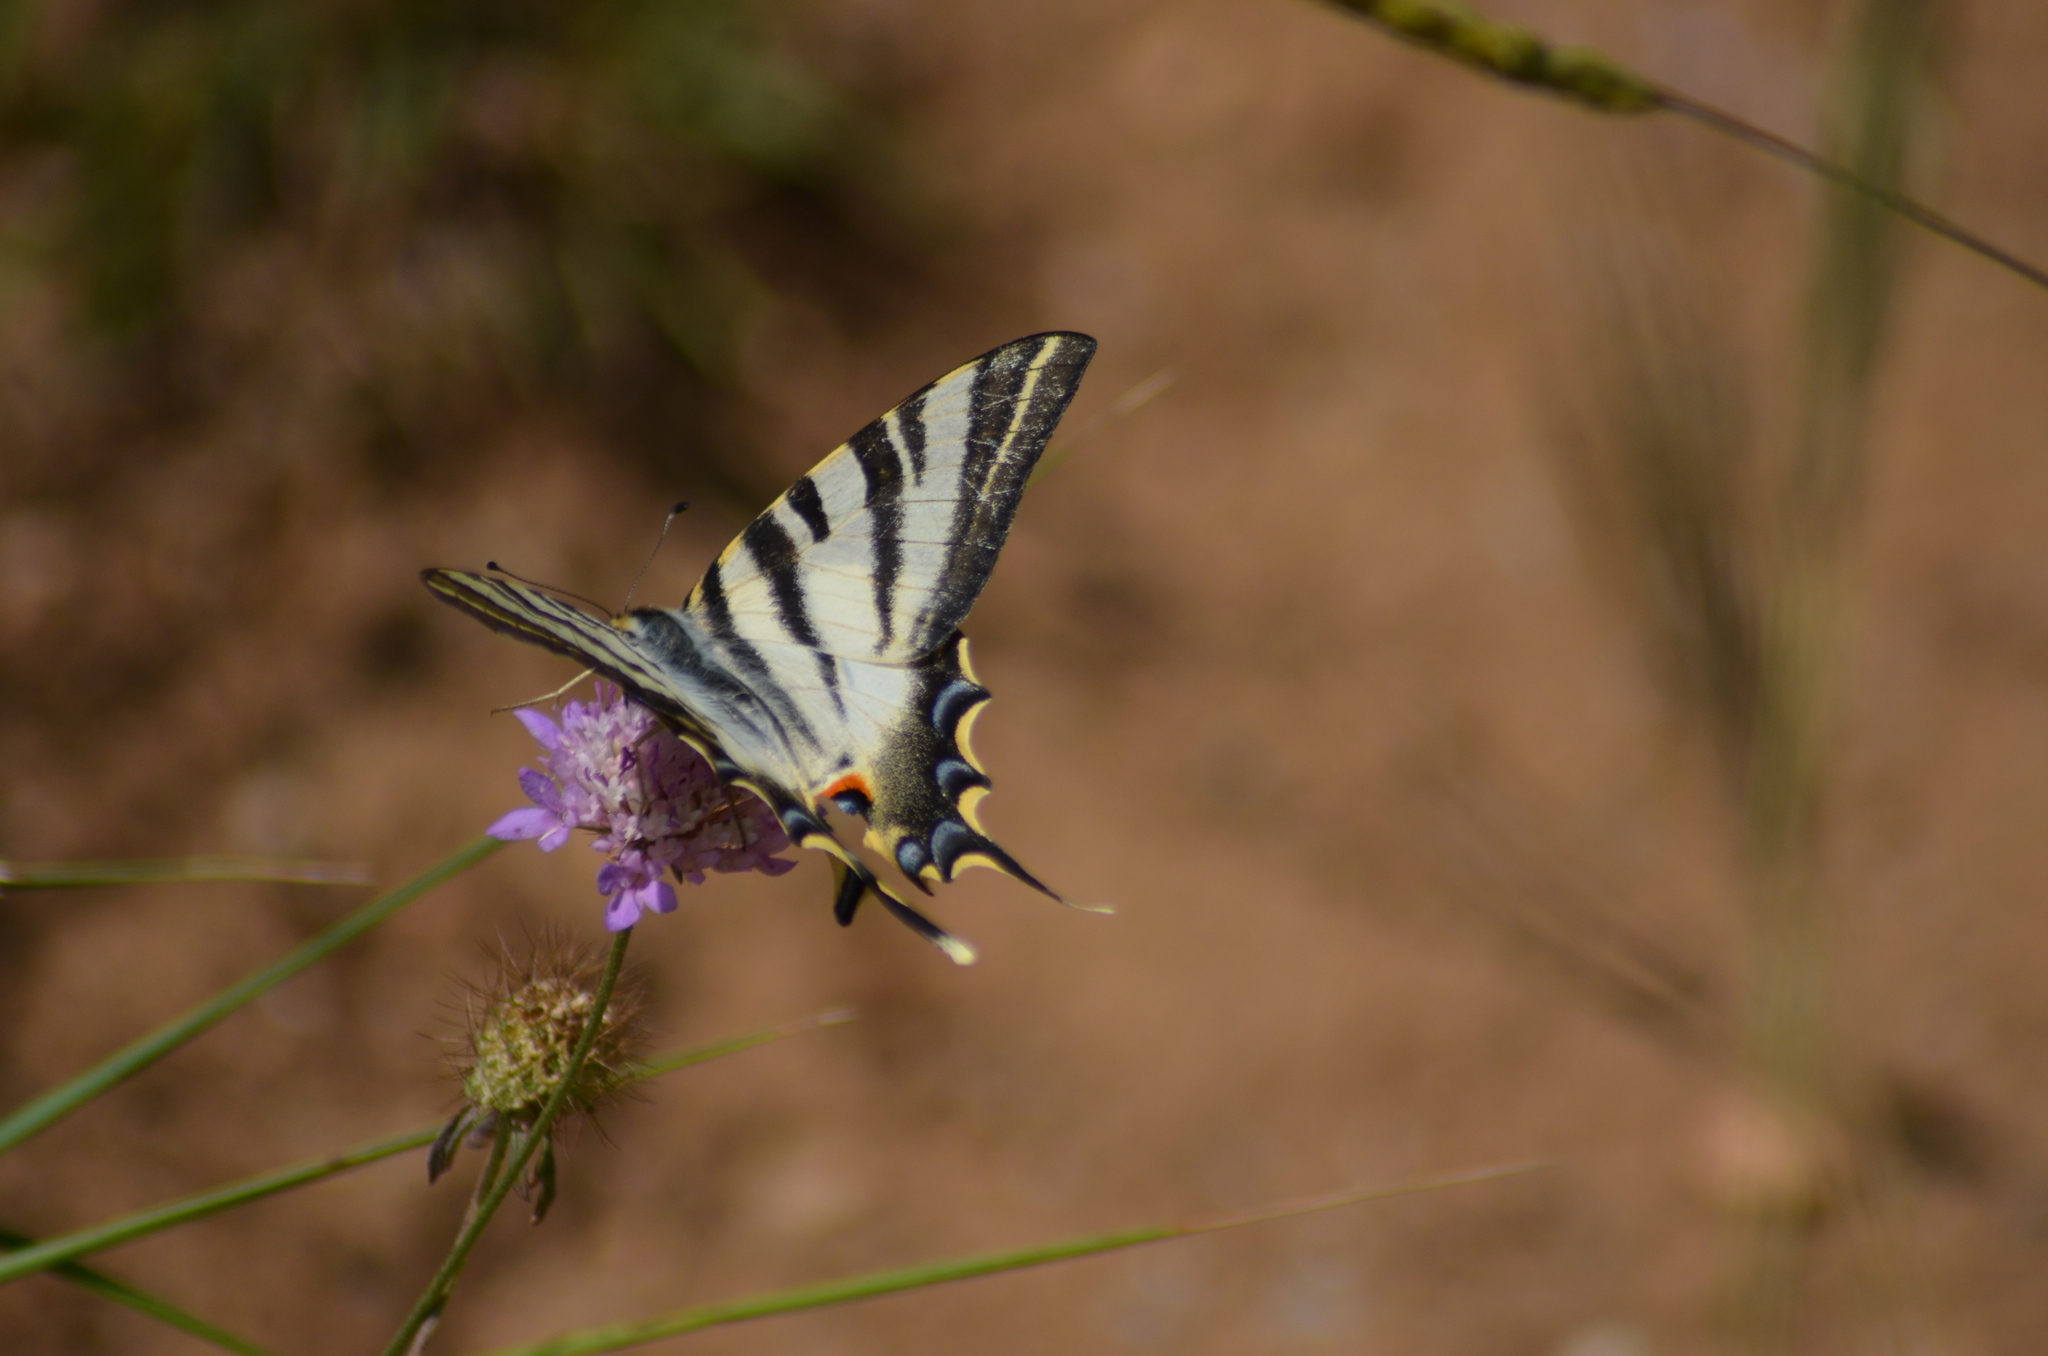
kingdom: Animalia
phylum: Arthropoda
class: Insecta
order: Lepidoptera
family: Papilionidae
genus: Iphiclides
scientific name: Iphiclides feisthamelii
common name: Iberian scarce swallowtail
